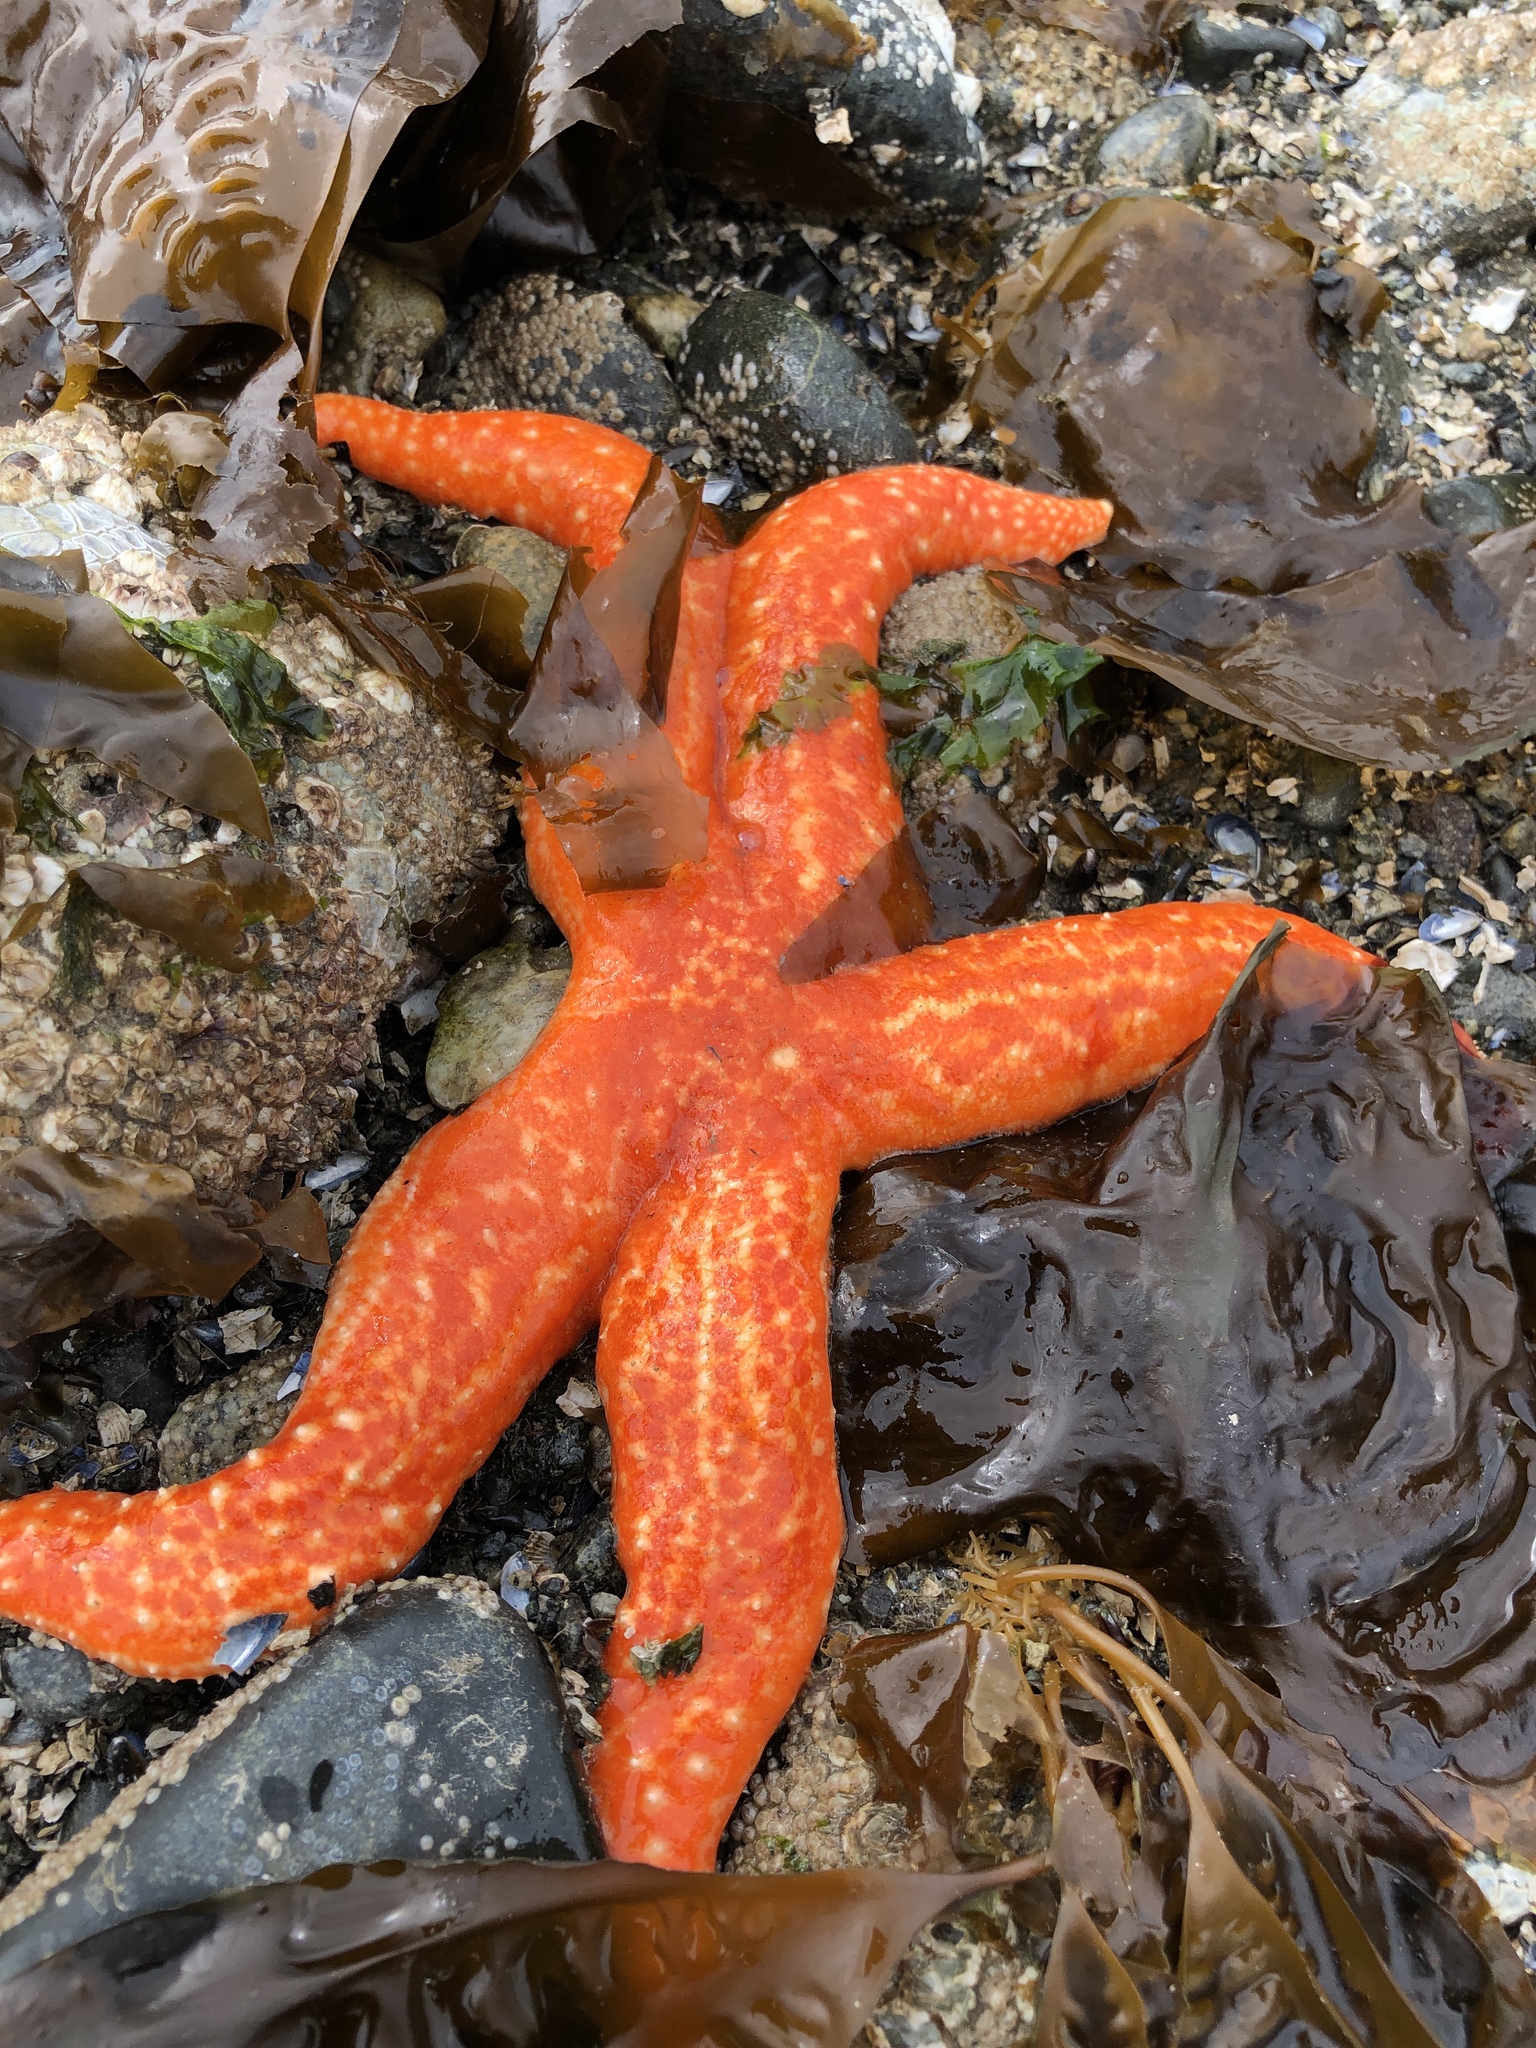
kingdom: Animalia
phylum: Echinodermata
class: Asteroidea
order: Forcipulatida
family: Asteriidae
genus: Evasterias
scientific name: Evasterias troschelii
